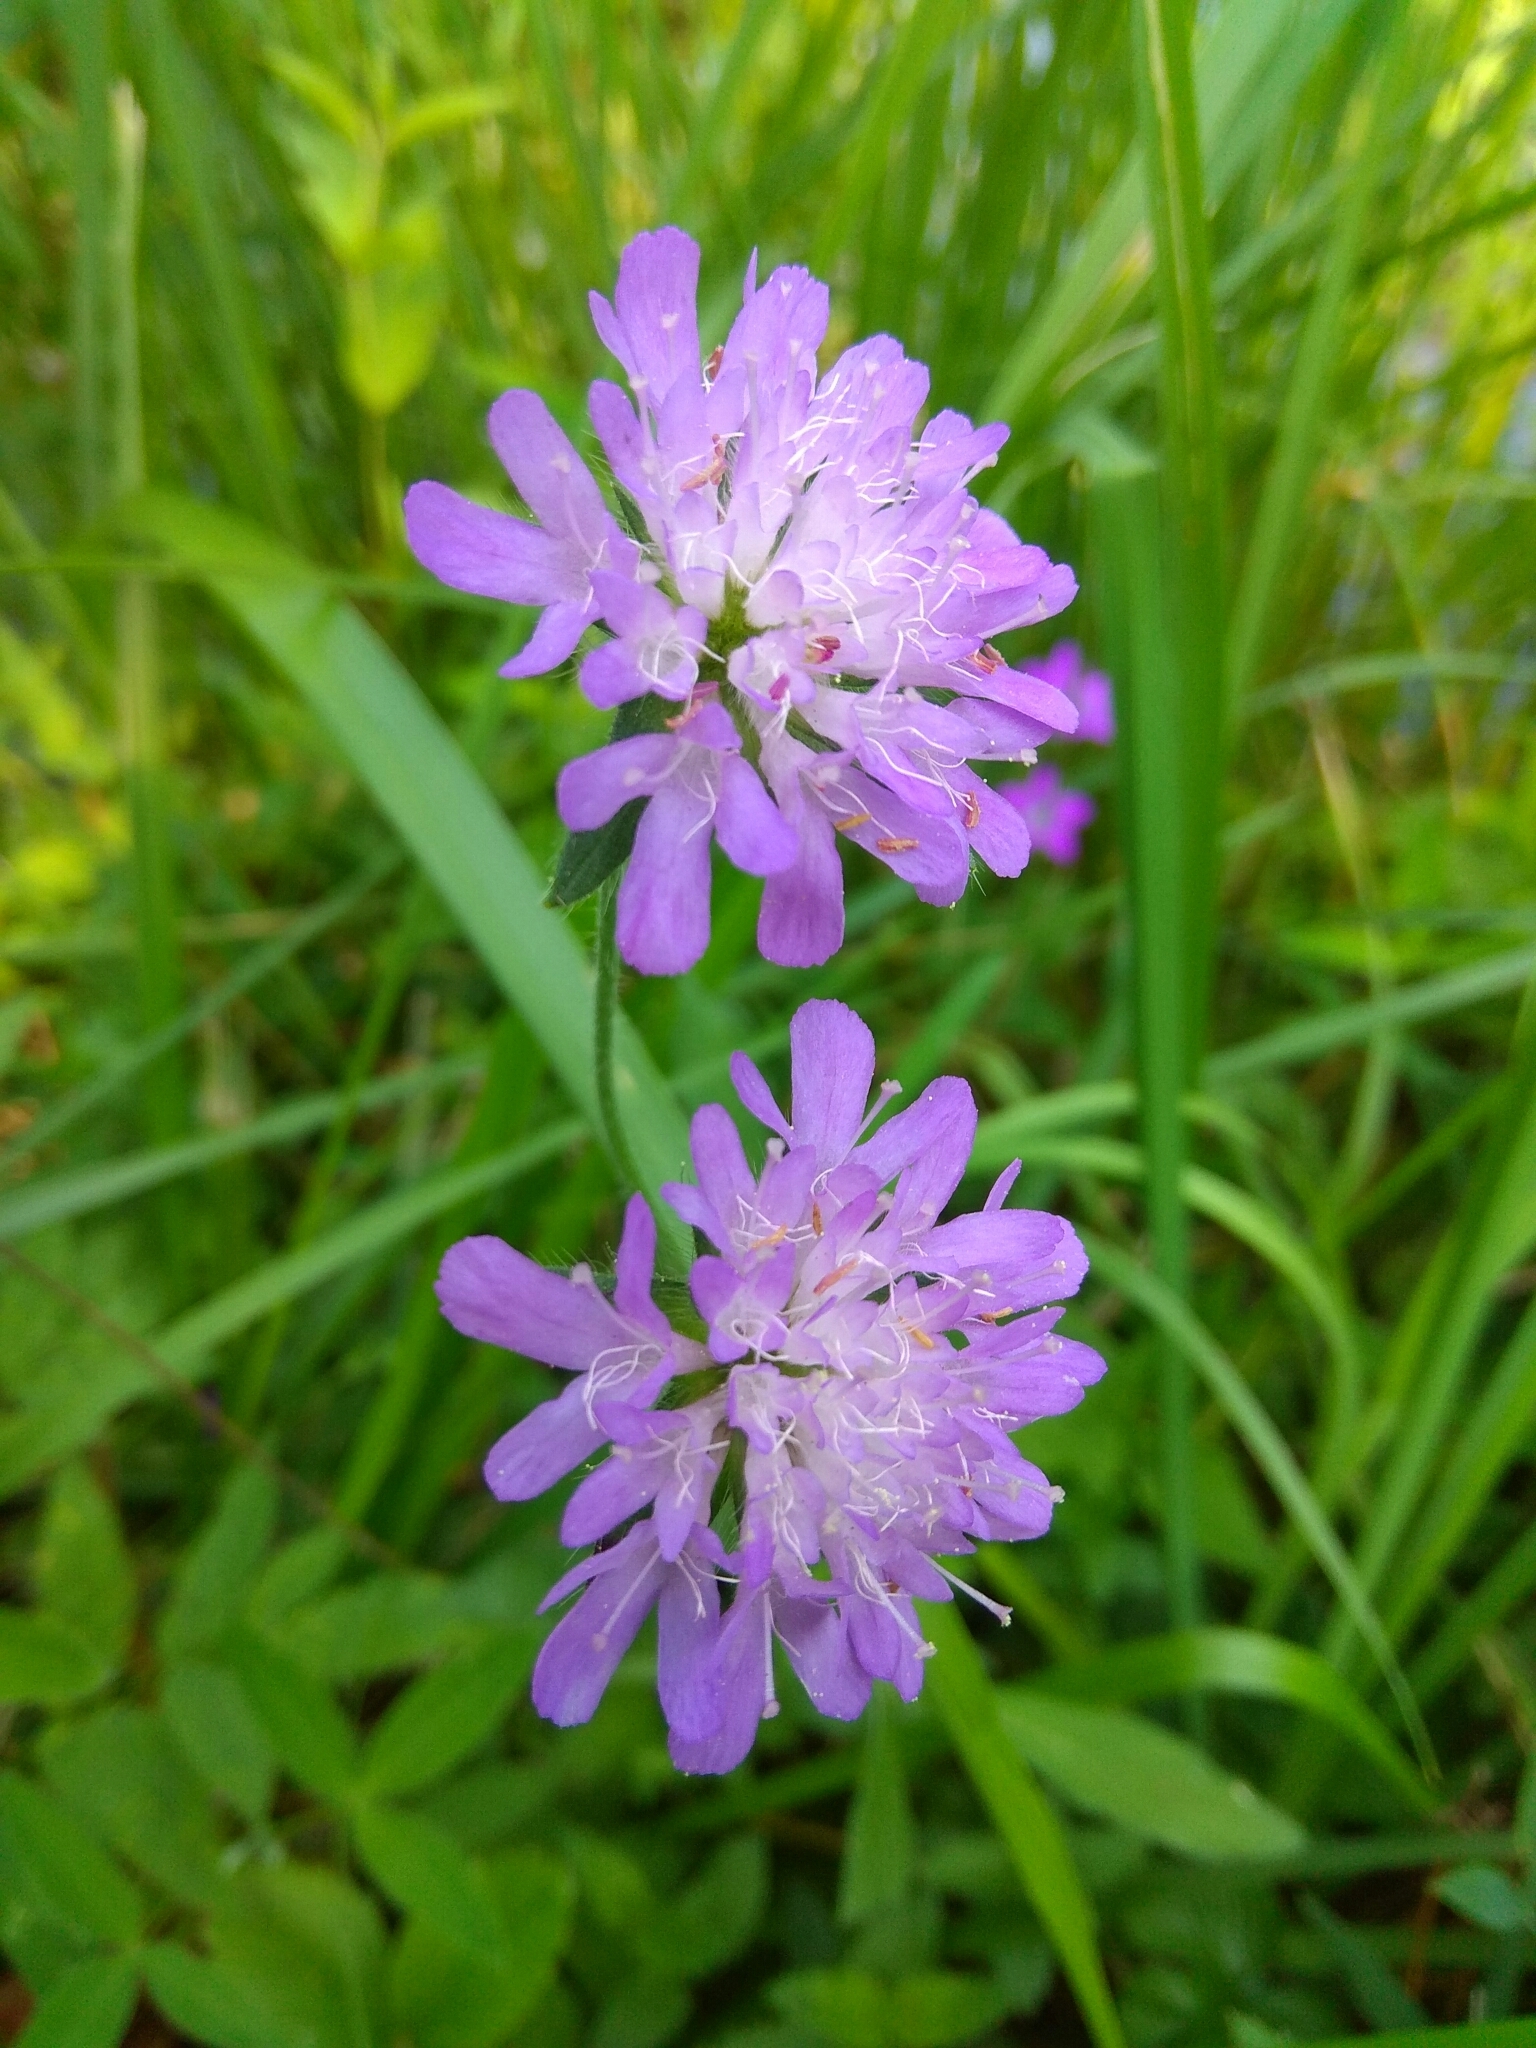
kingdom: Plantae
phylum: Tracheophyta
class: Magnoliopsida
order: Dipsacales
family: Caprifoliaceae
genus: Knautia
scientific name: Knautia arvensis
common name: Field scabiosa
